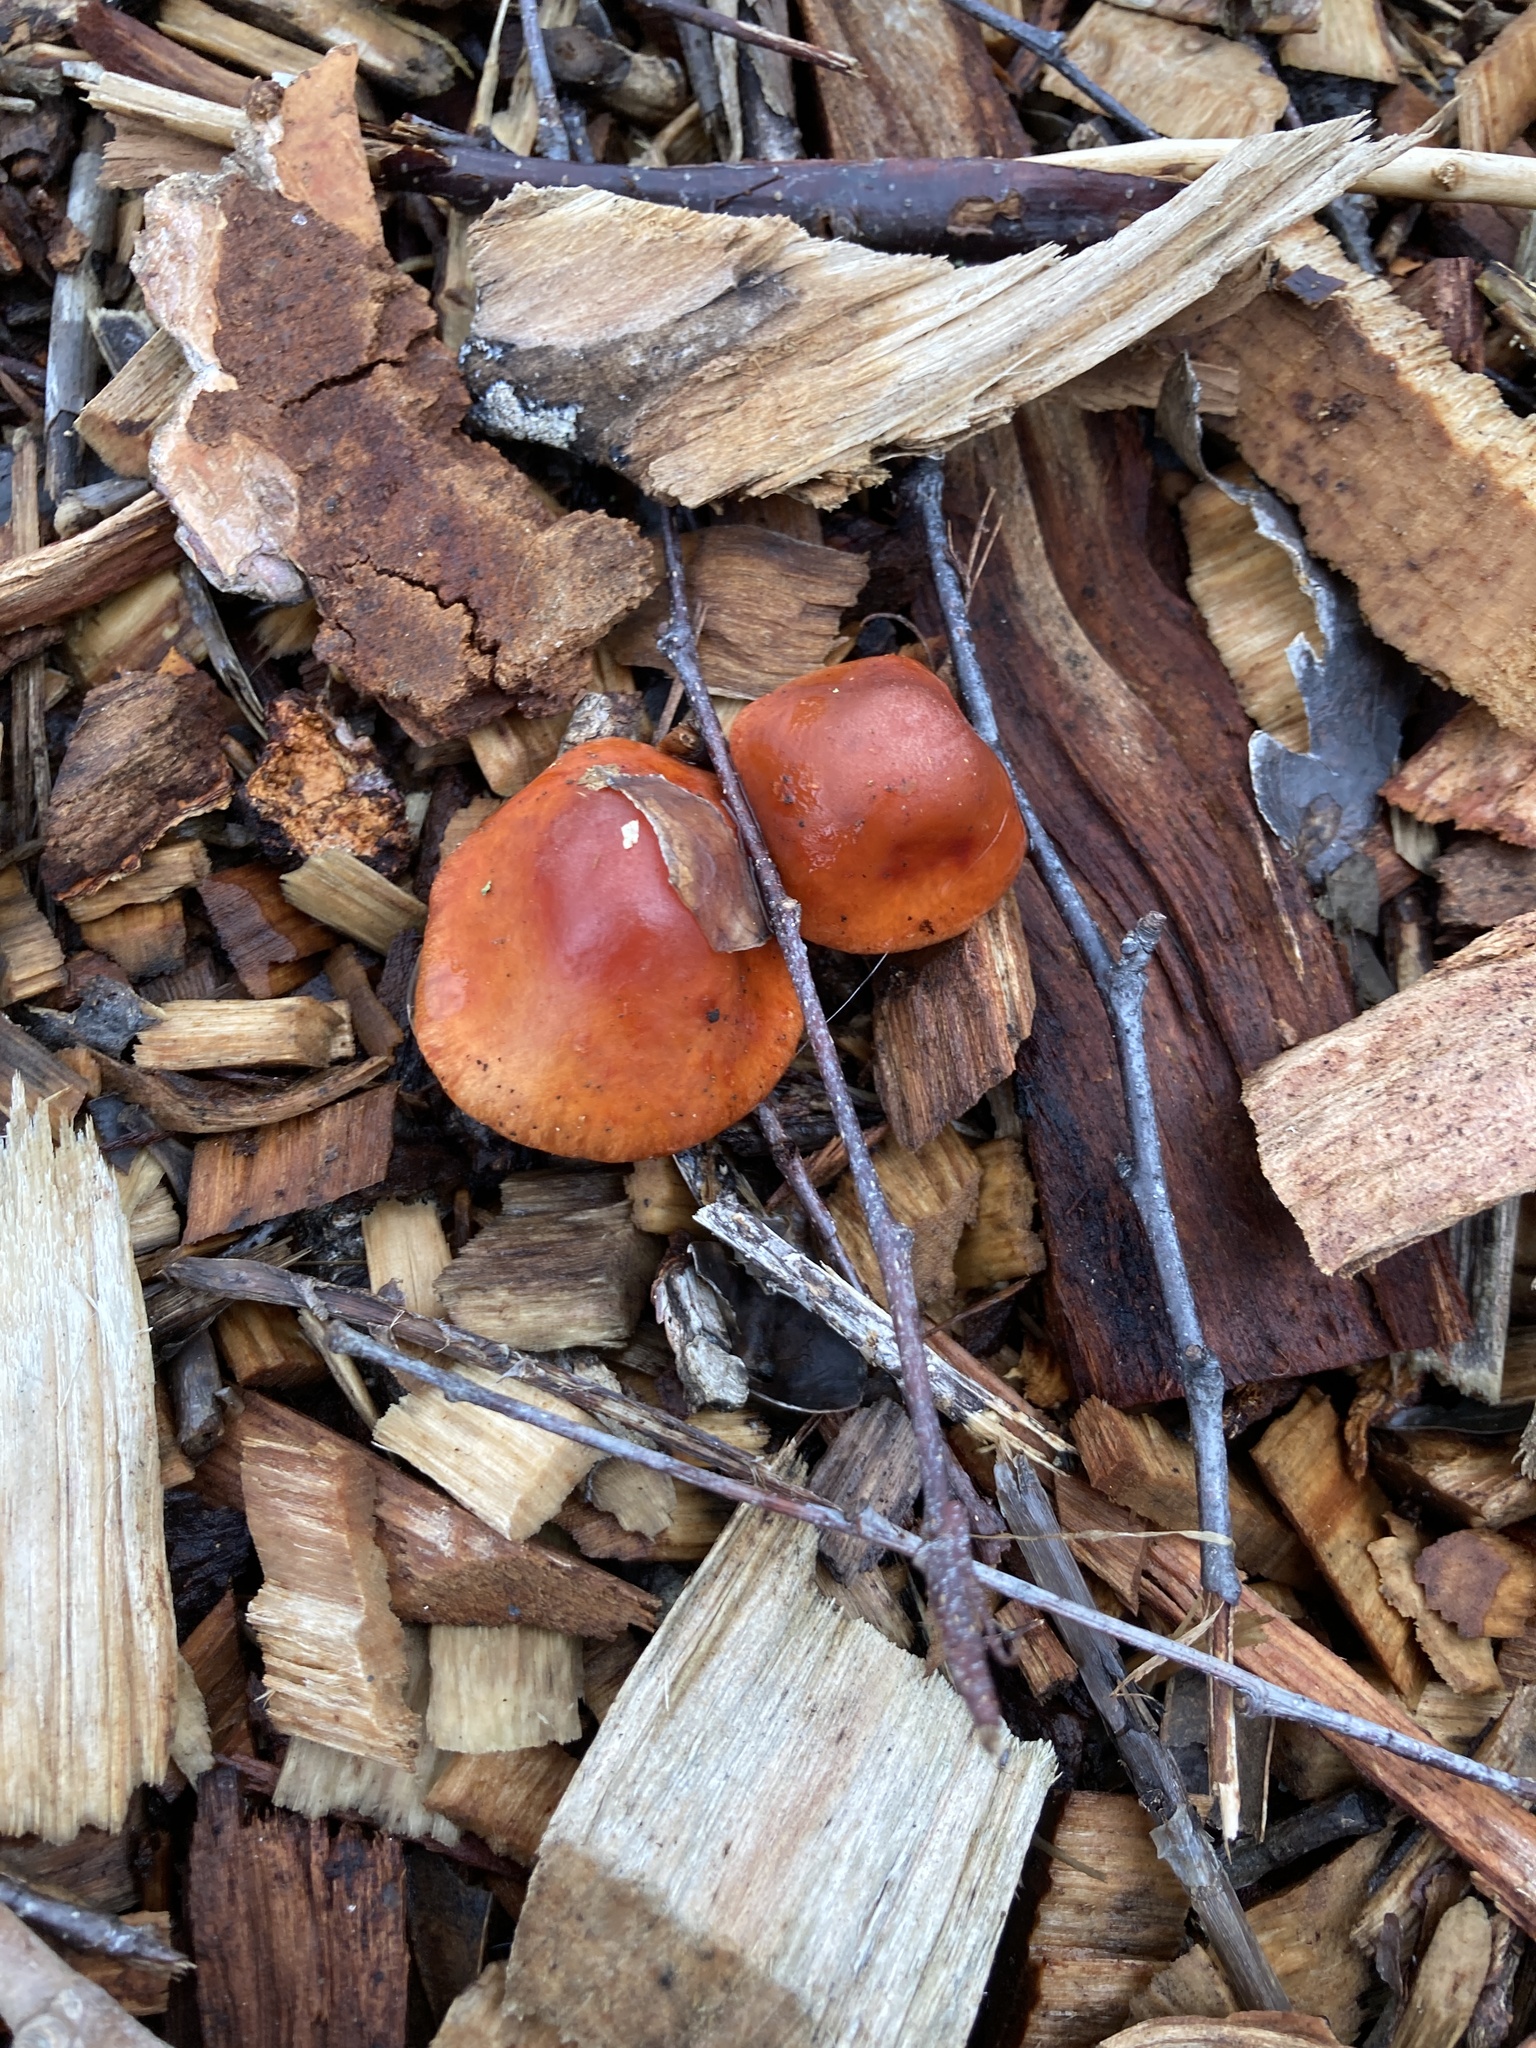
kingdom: Fungi
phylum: Basidiomycota
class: Agaricomycetes
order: Agaricales
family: Strophariaceae
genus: Leratiomyces
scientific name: Leratiomyces ceres
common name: Redlead roundhead
